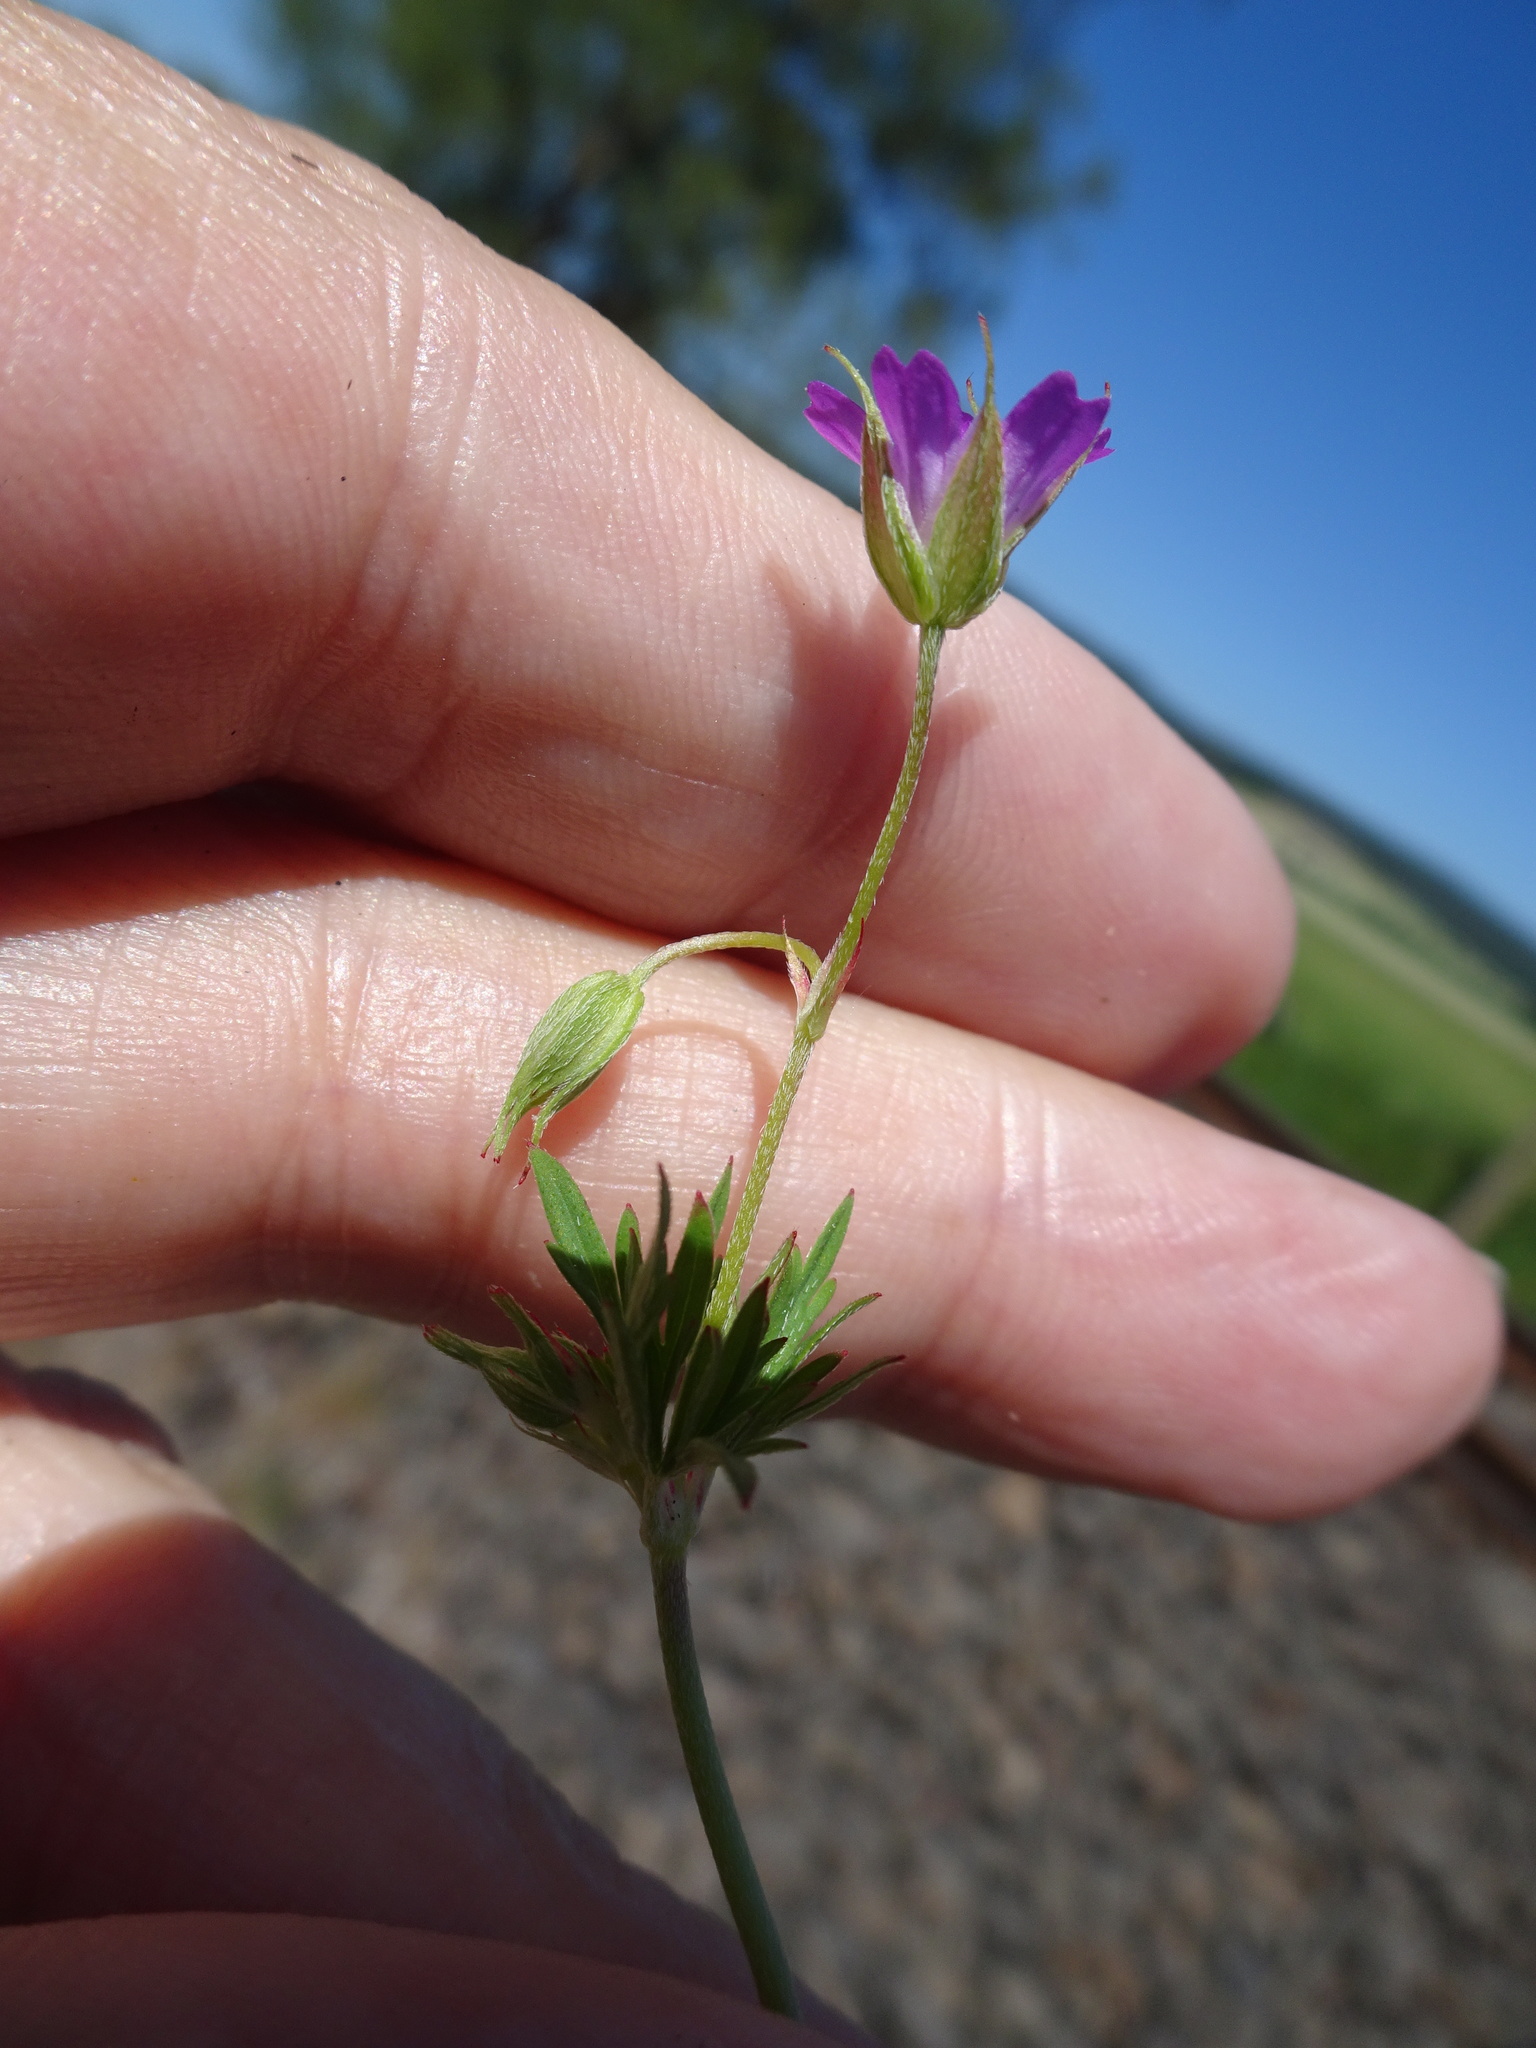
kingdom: Plantae
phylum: Tracheophyta
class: Magnoliopsida
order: Geraniales
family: Geraniaceae
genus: Geranium
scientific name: Geranium columbinum
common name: Long-stalked crane's-bill
